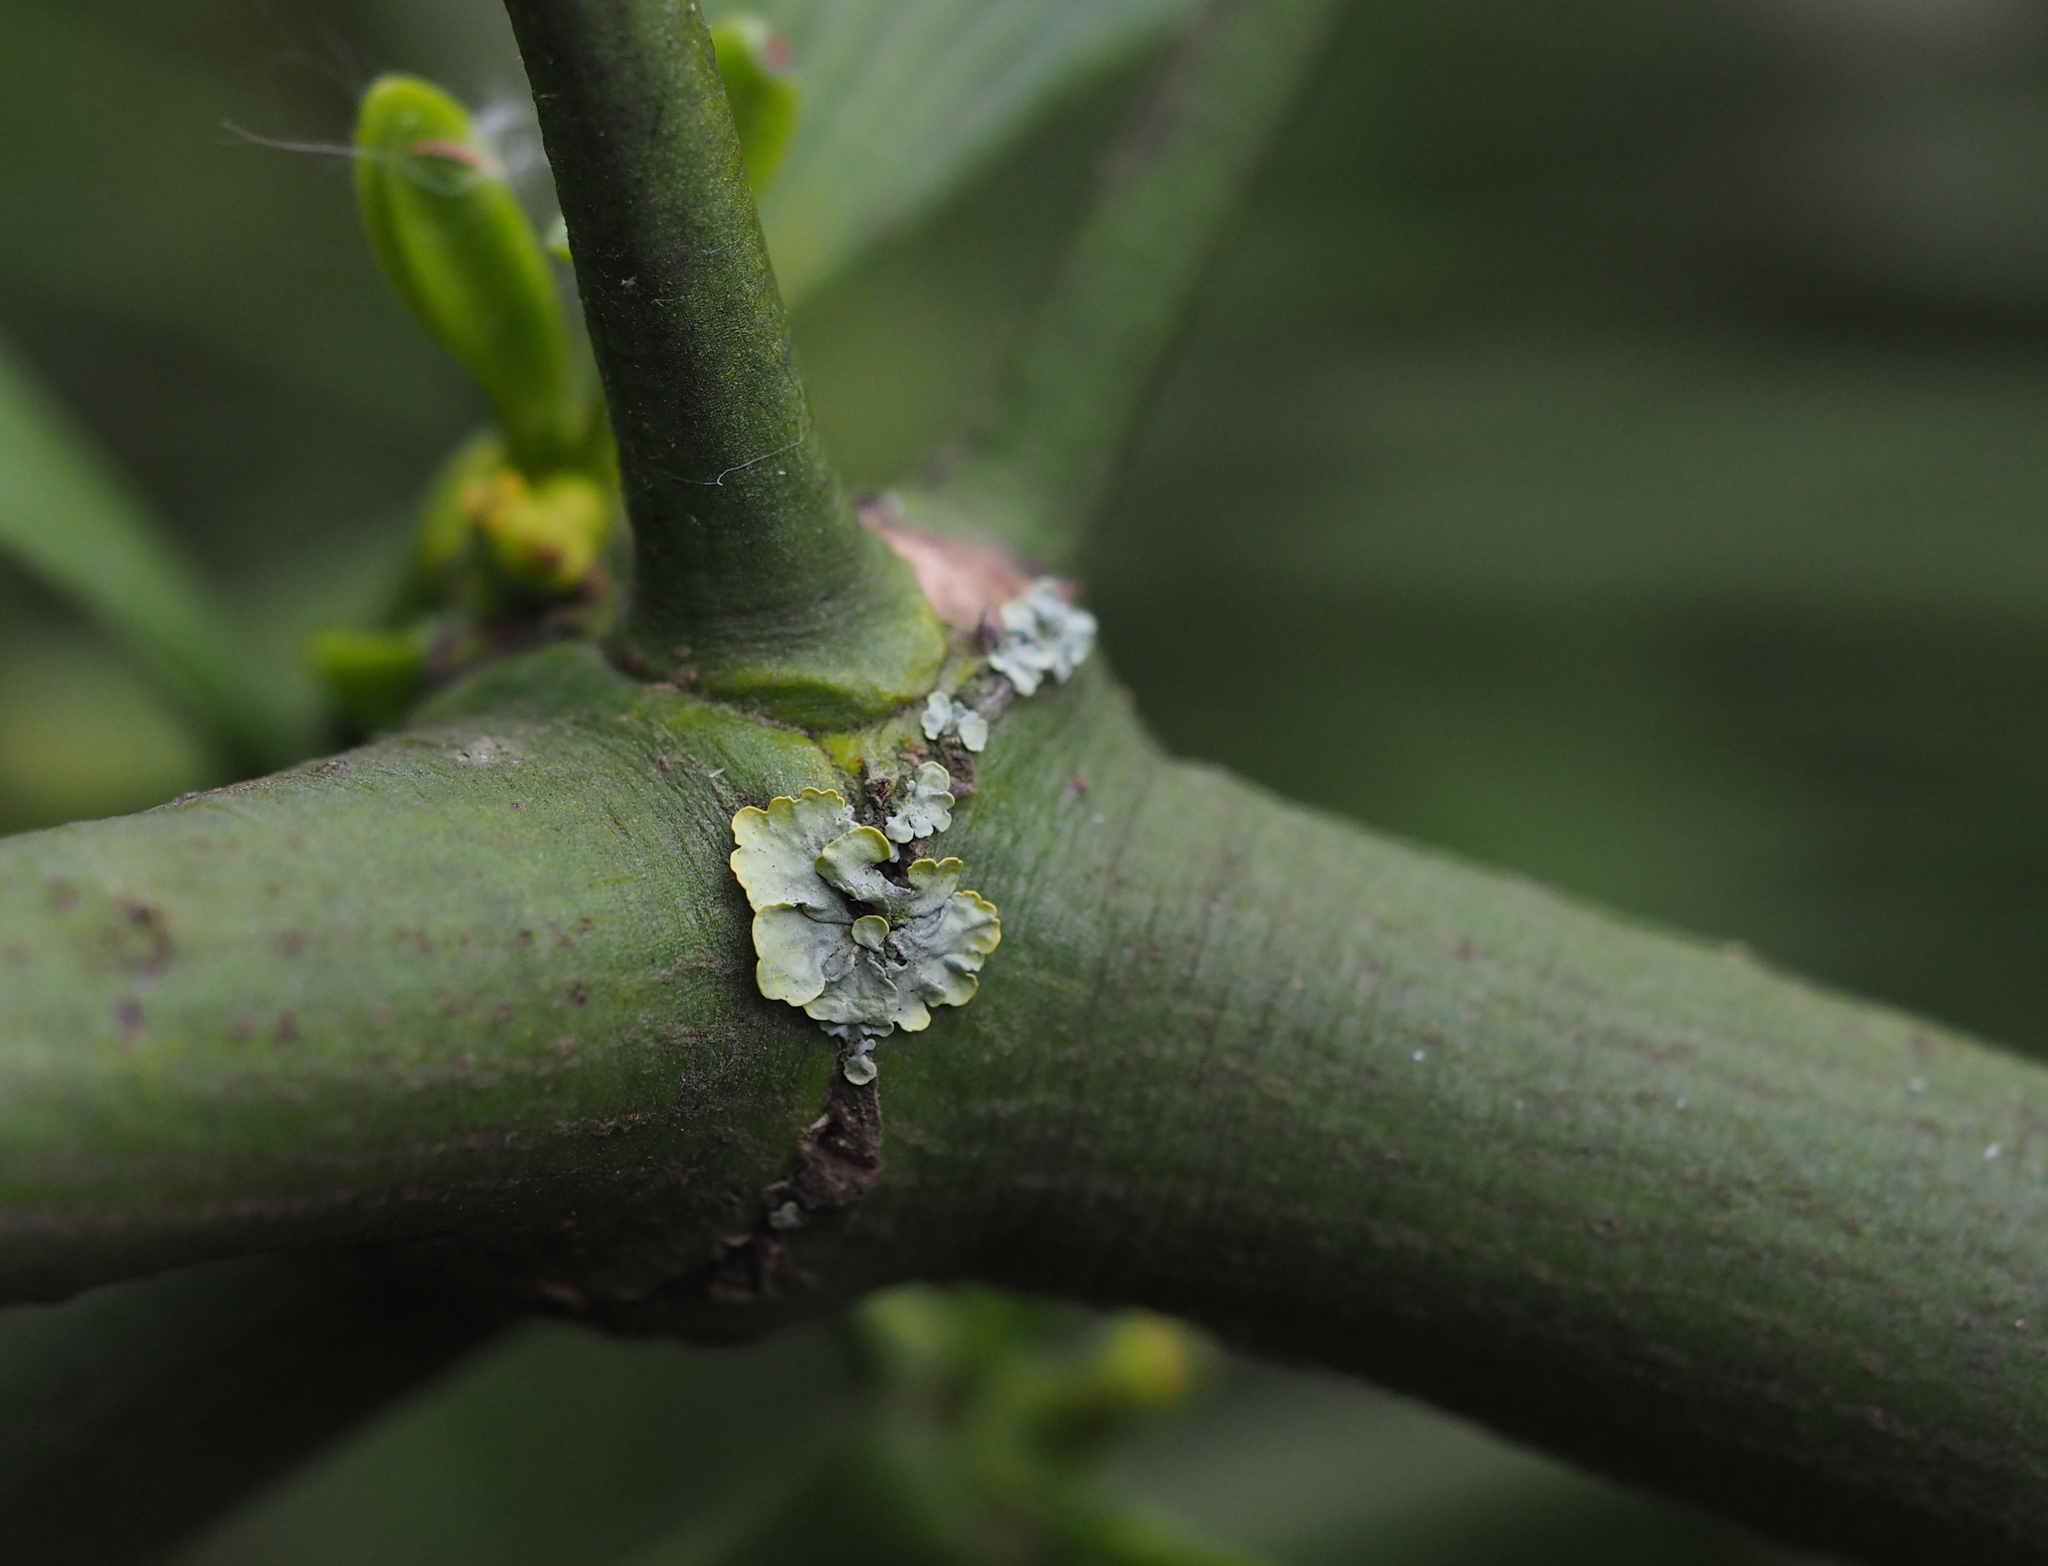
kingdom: Fungi
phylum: Ascomycota
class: Lecanoromycetes
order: Teloschistales
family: Teloschistaceae
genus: Xanthoria
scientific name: Xanthoria parietina
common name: Common orange lichen
